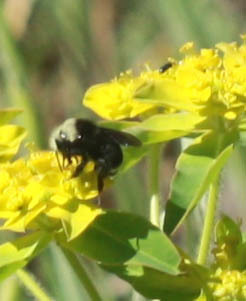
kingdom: Animalia
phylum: Arthropoda
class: Insecta
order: Hymenoptera
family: Apidae
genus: Bombus
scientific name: Bombus vosnesenskii
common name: Vosnesensky bumble bee
